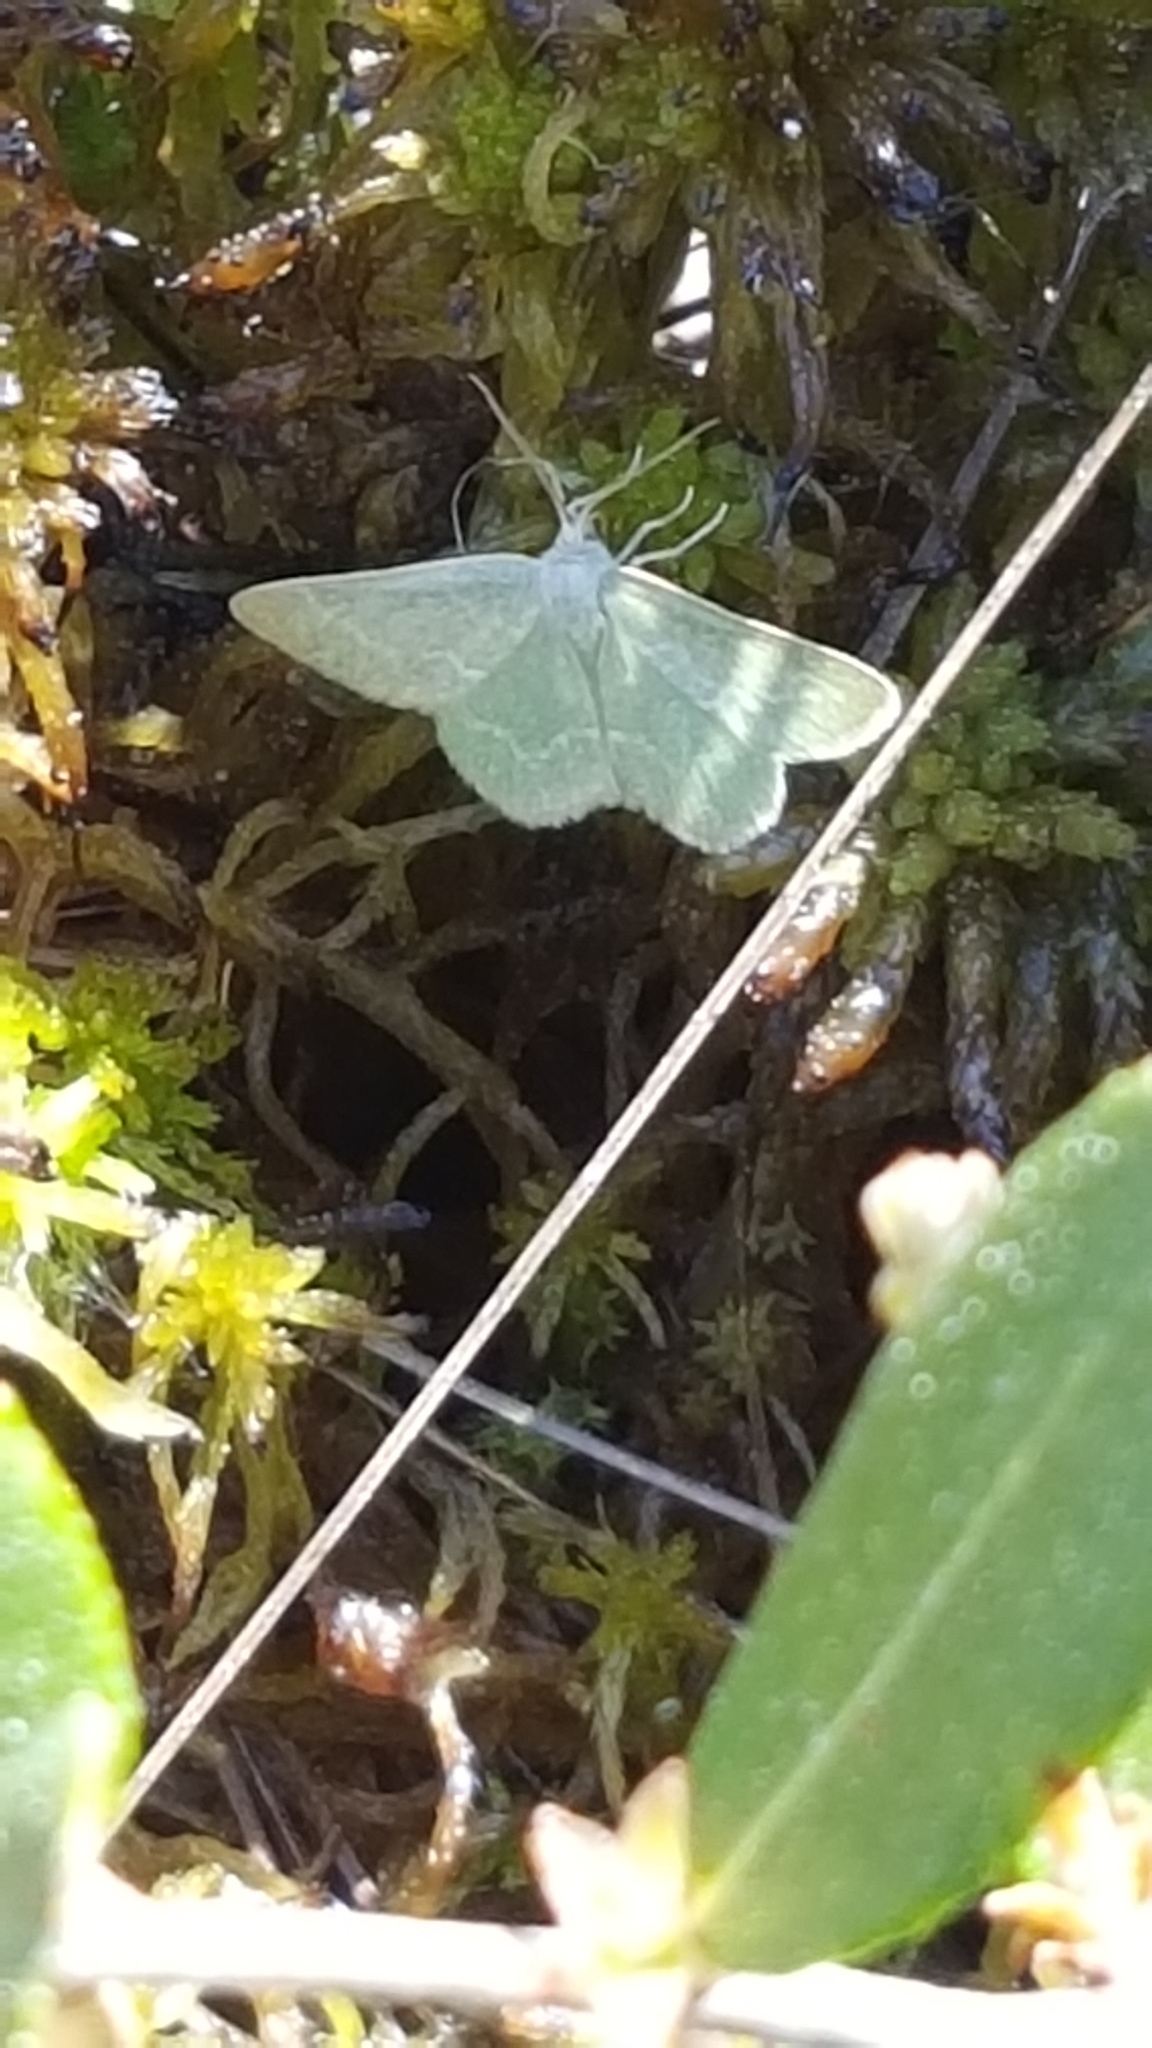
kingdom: Animalia
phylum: Arthropoda
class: Insecta
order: Lepidoptera
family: Geometridae
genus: Synchlora
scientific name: Synchlora aerata
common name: Wavy-lined emerald
